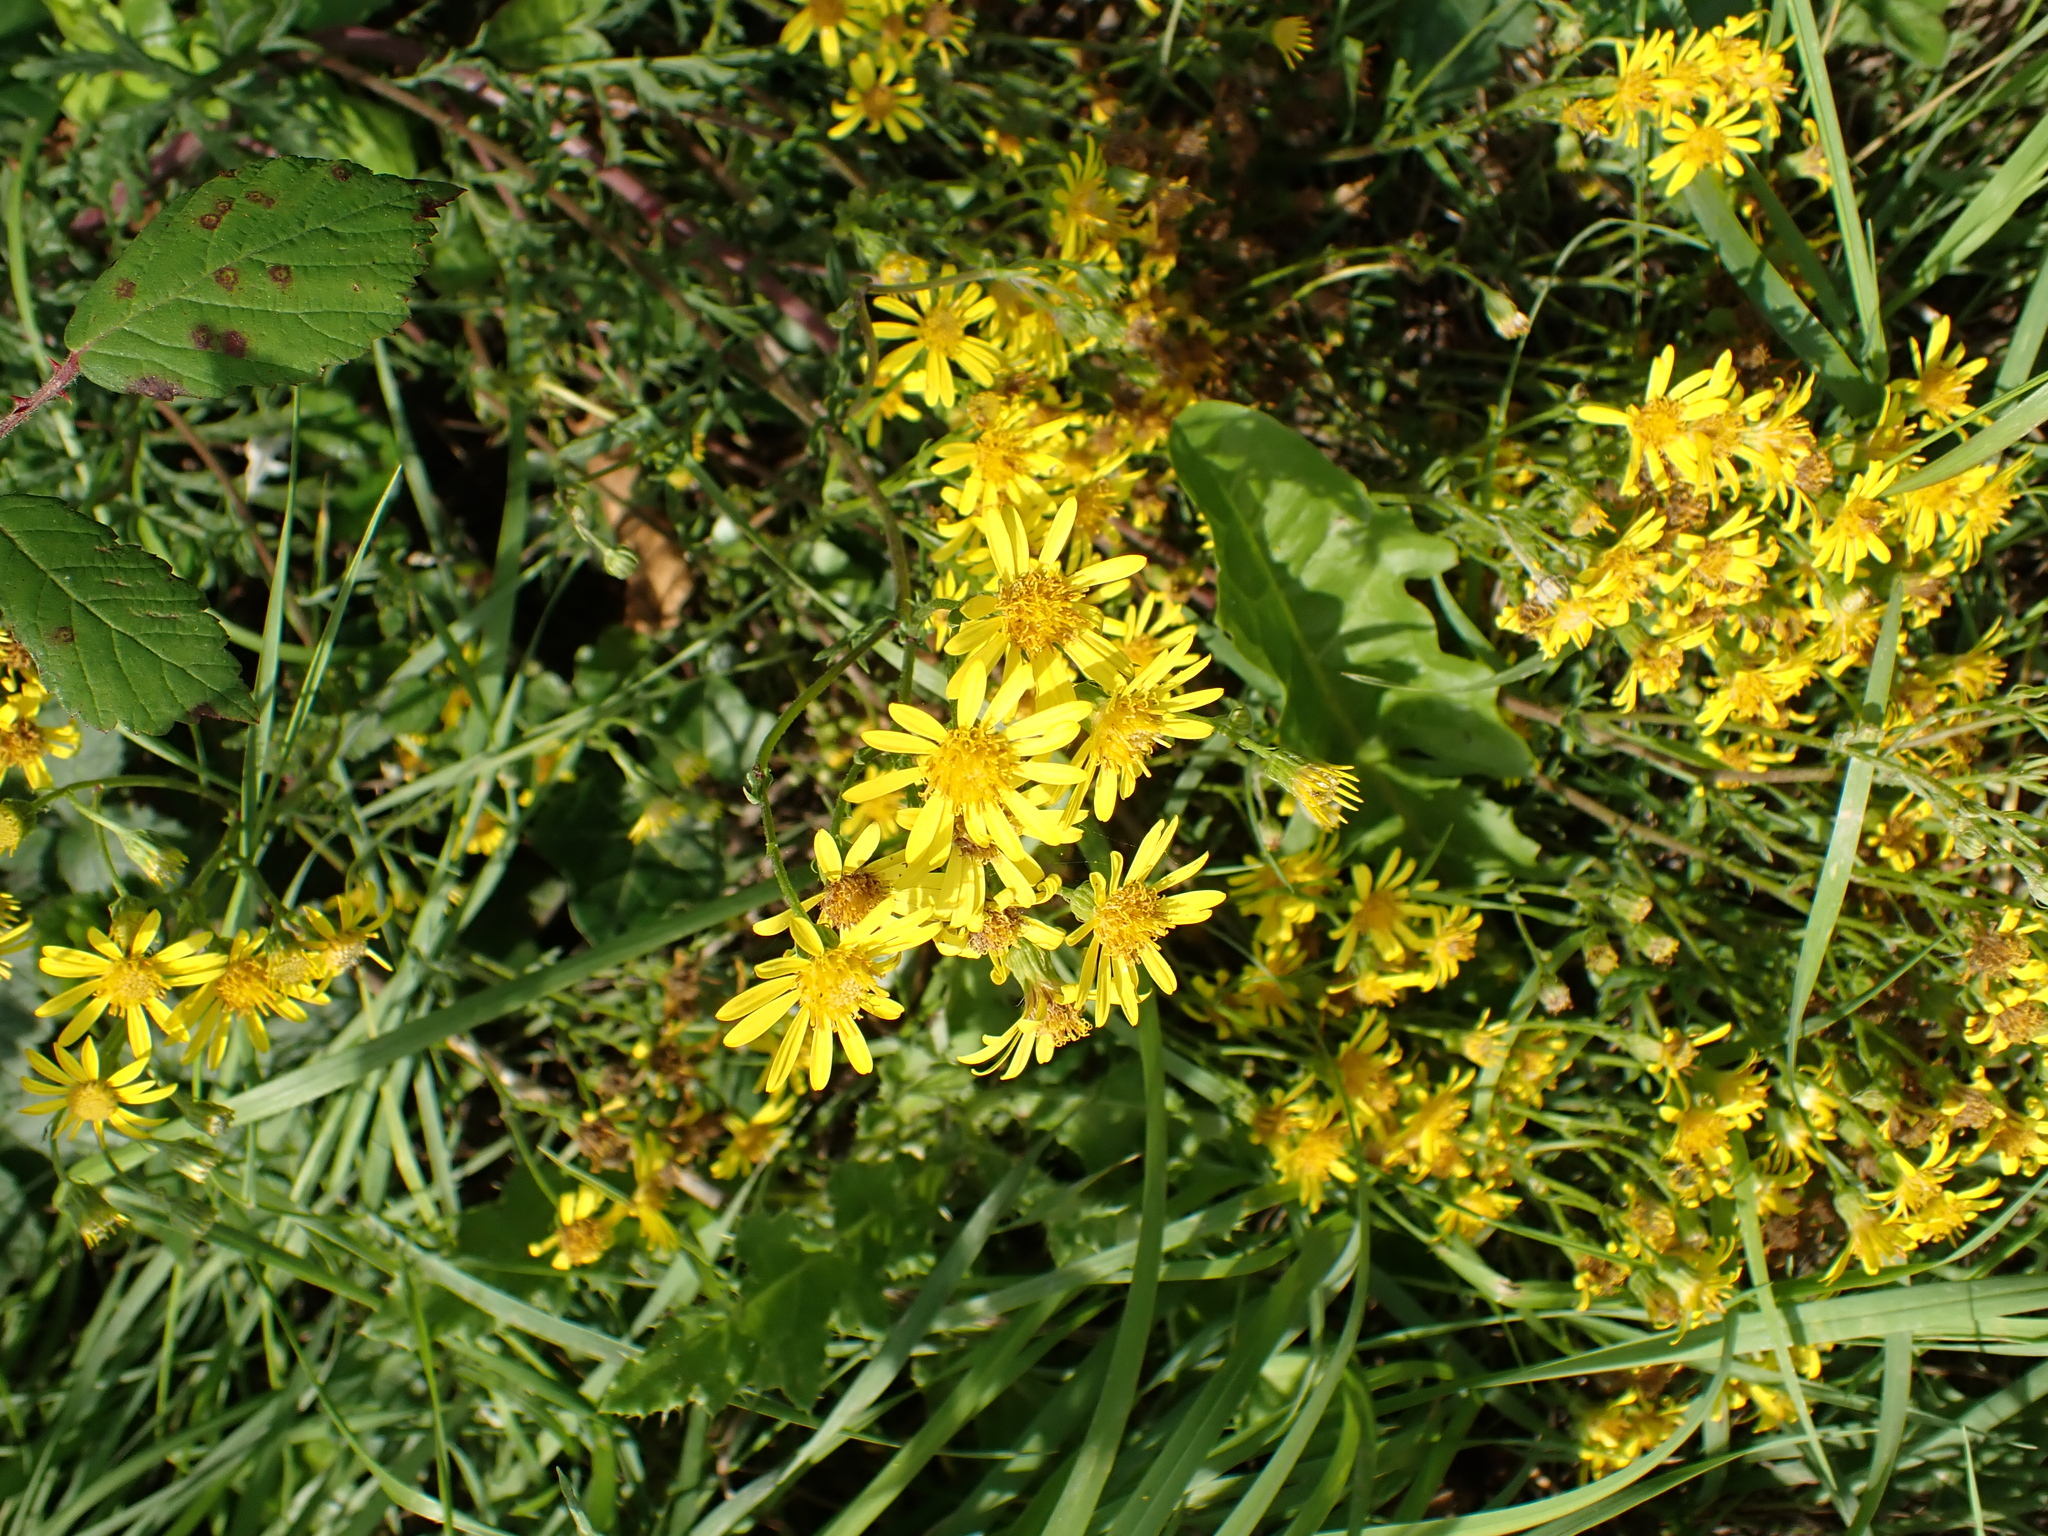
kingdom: Plantae
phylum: Tracheophyta
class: Magnoliopsida
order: Asterales
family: Asteraceae
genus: Jacobaea
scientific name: Jacobaea vulgaris
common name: Stinking willie
